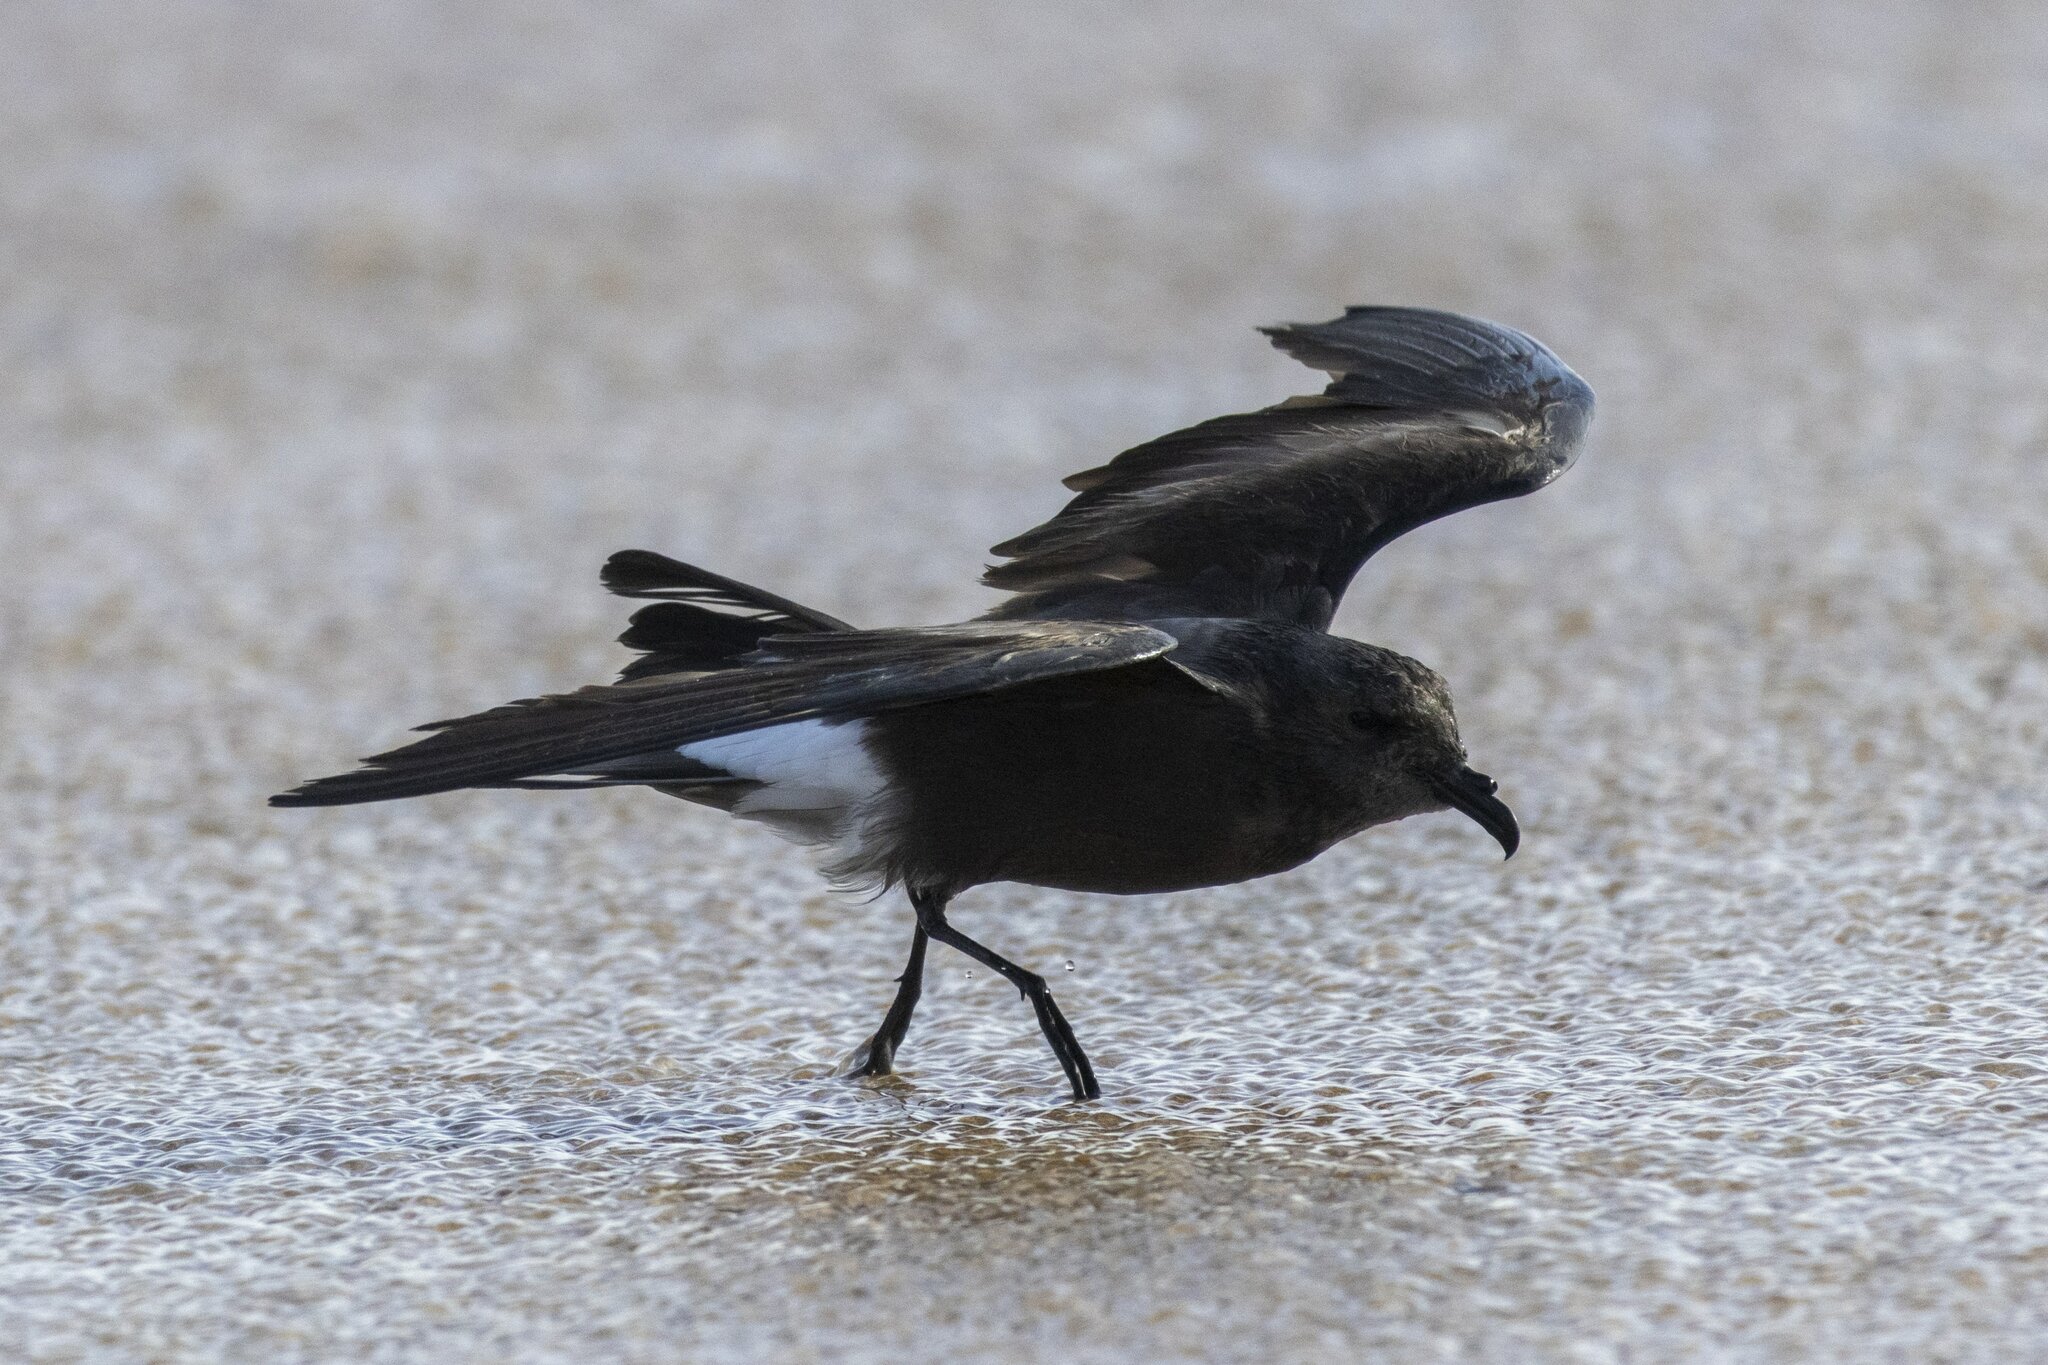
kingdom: Animalia
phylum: Chordata
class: Aves
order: Procellariiformes
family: Hydrobatidae
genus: Oceanodroma
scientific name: Oceanodroma leucorhoa
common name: Leach's storm-petrel
